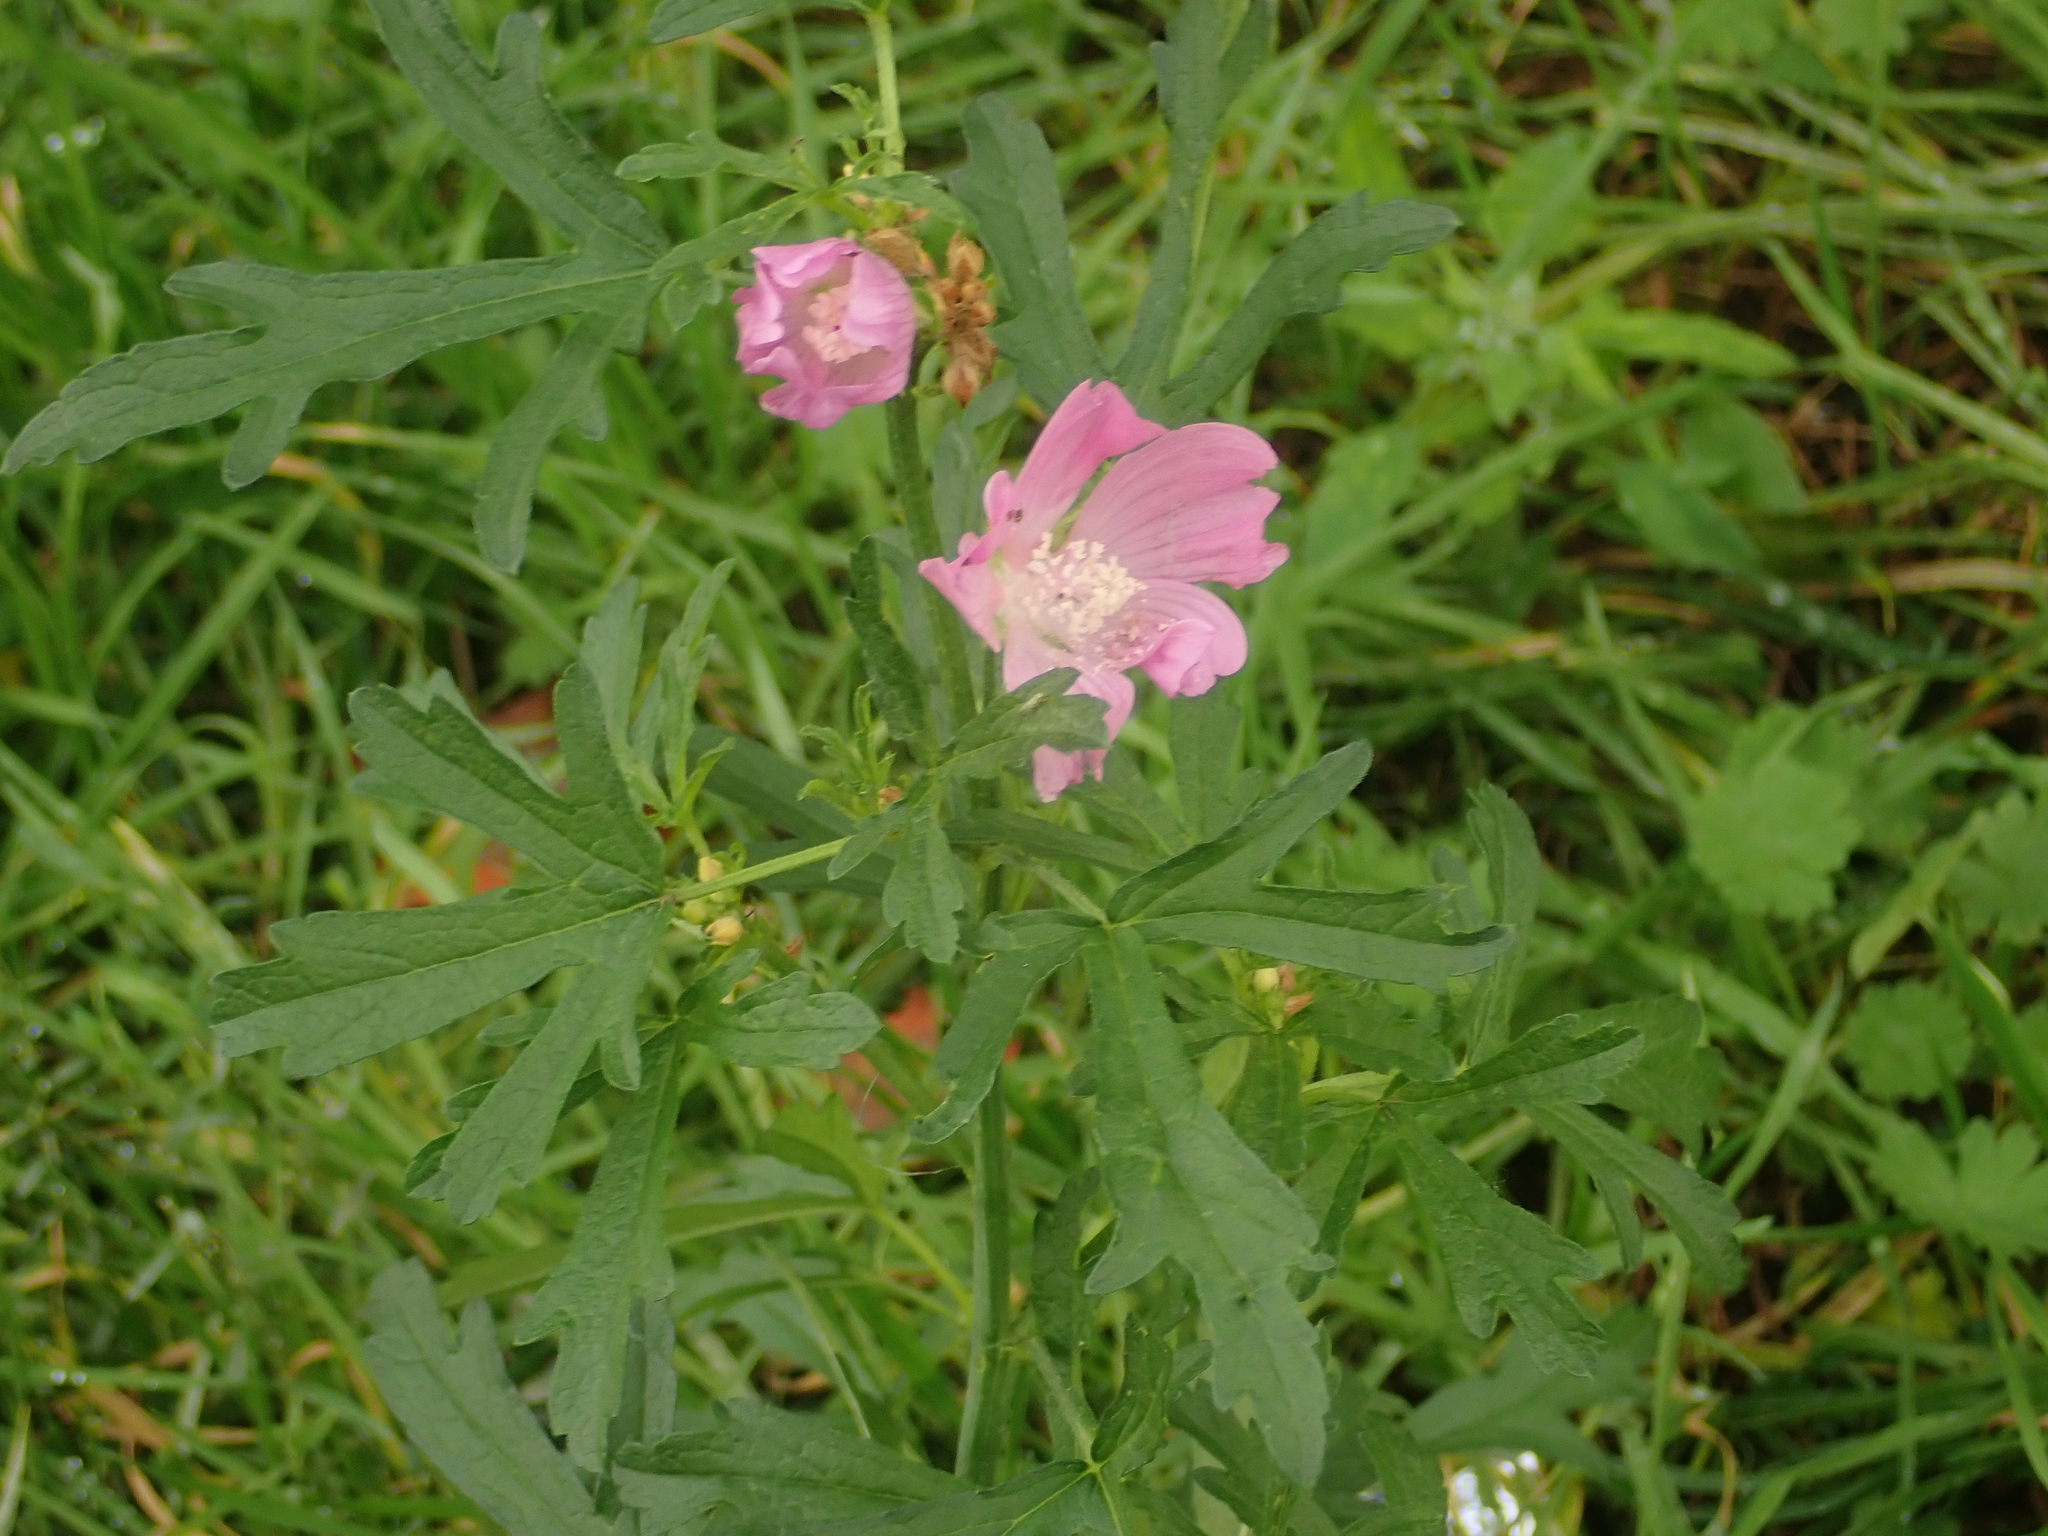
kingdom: Plantae
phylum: Tracheophyta
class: Magnoliopsida
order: Malvales
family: Malvaceae
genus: Malva
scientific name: Malva alcea
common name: Greater musk-mallow
